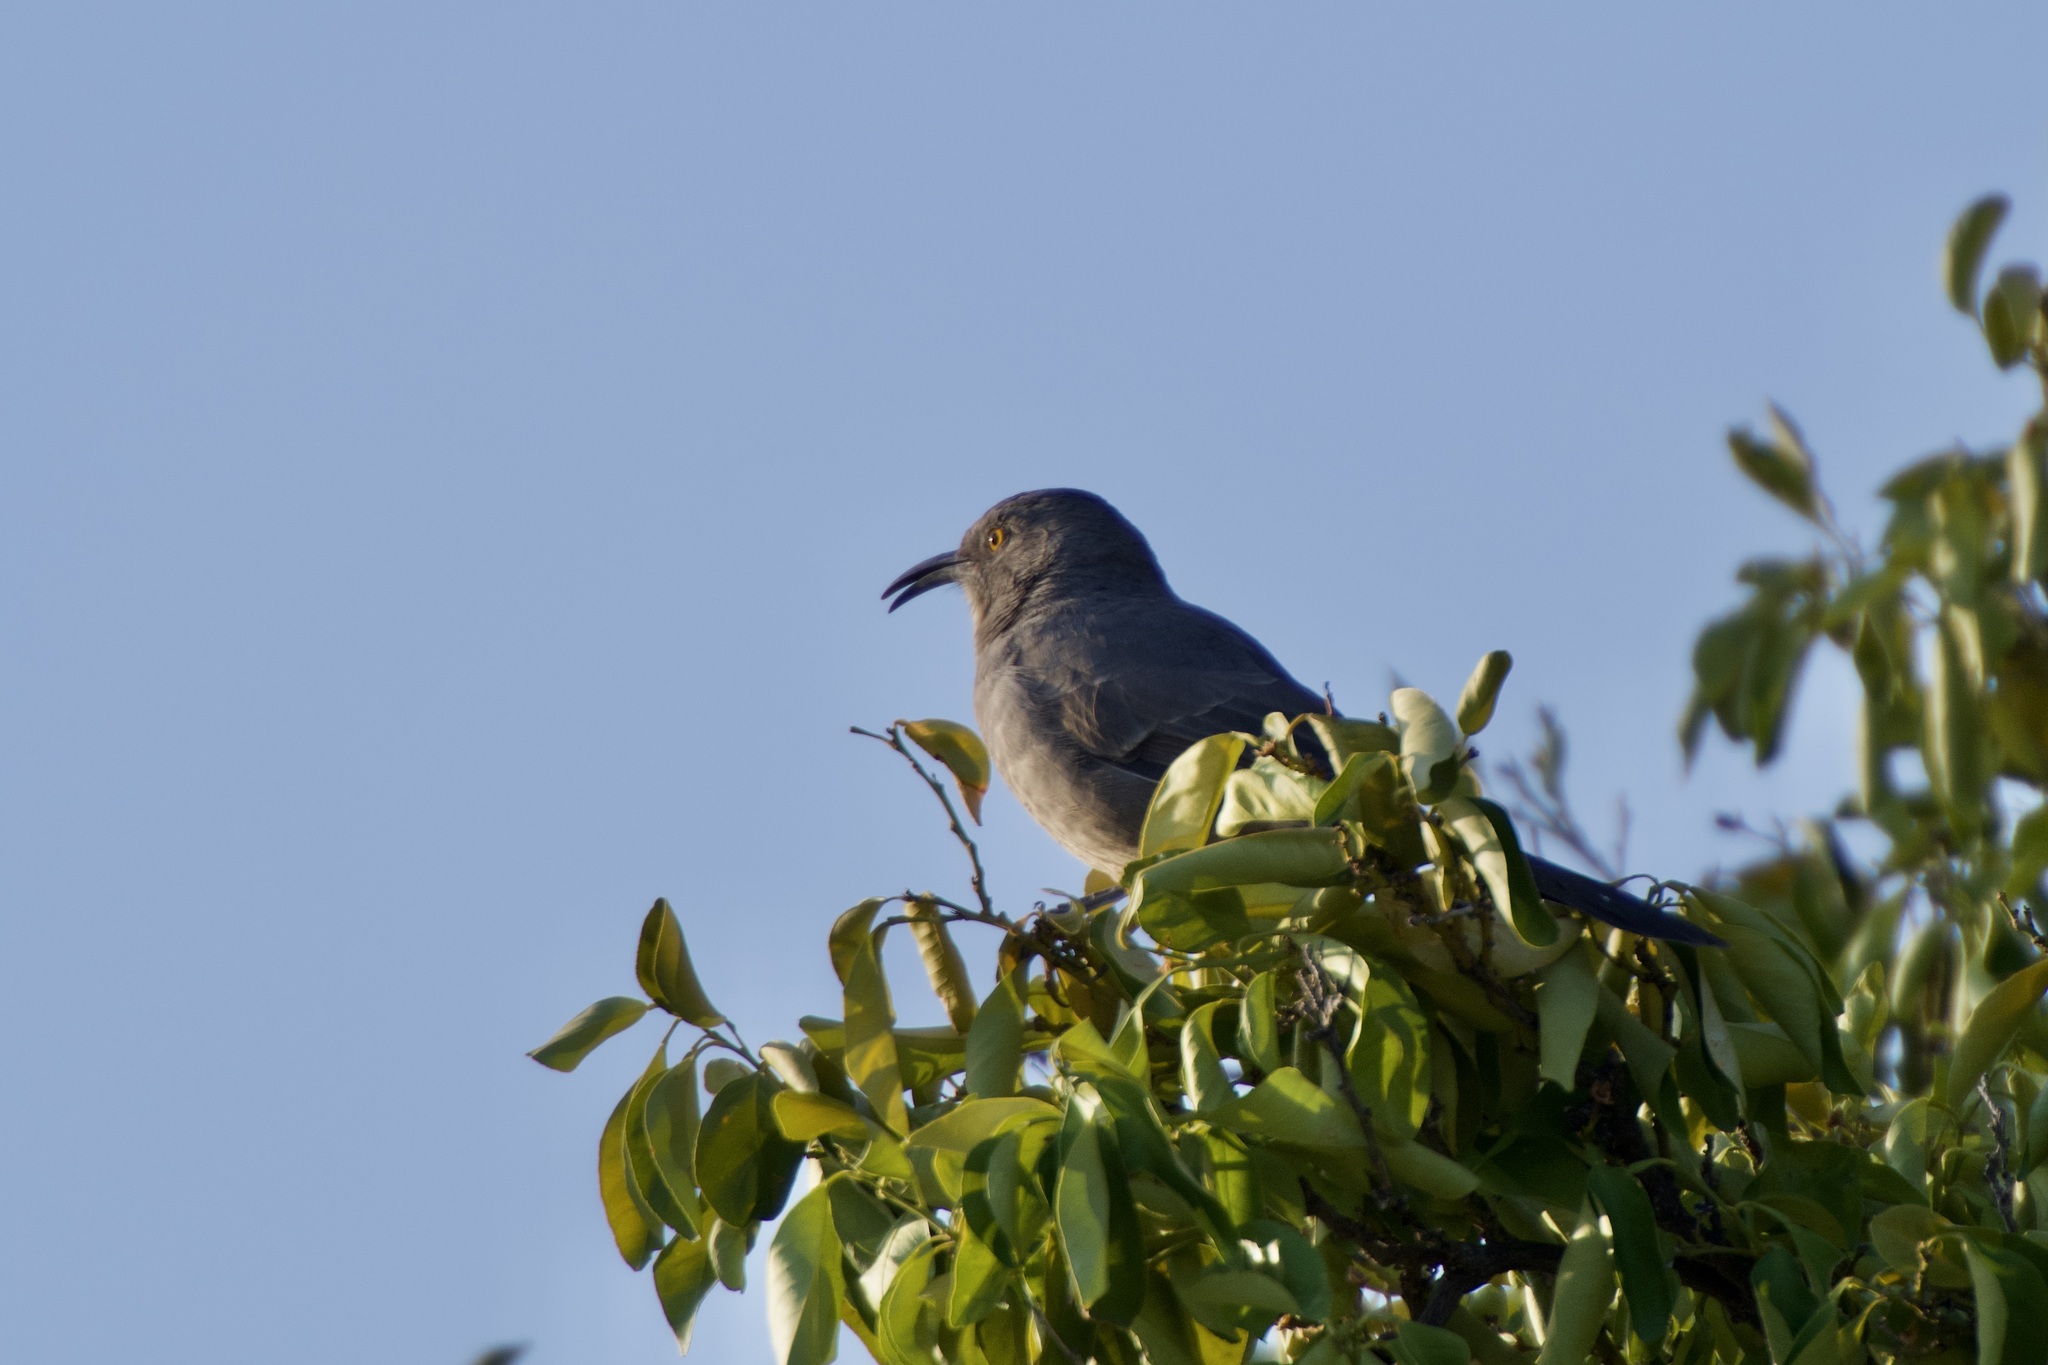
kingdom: Animalia
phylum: Chordata
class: Aves
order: Passeriformes
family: Mimidae
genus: Toxostoma
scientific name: Toxostoma curvirostre
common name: Curve-billed thrasher
